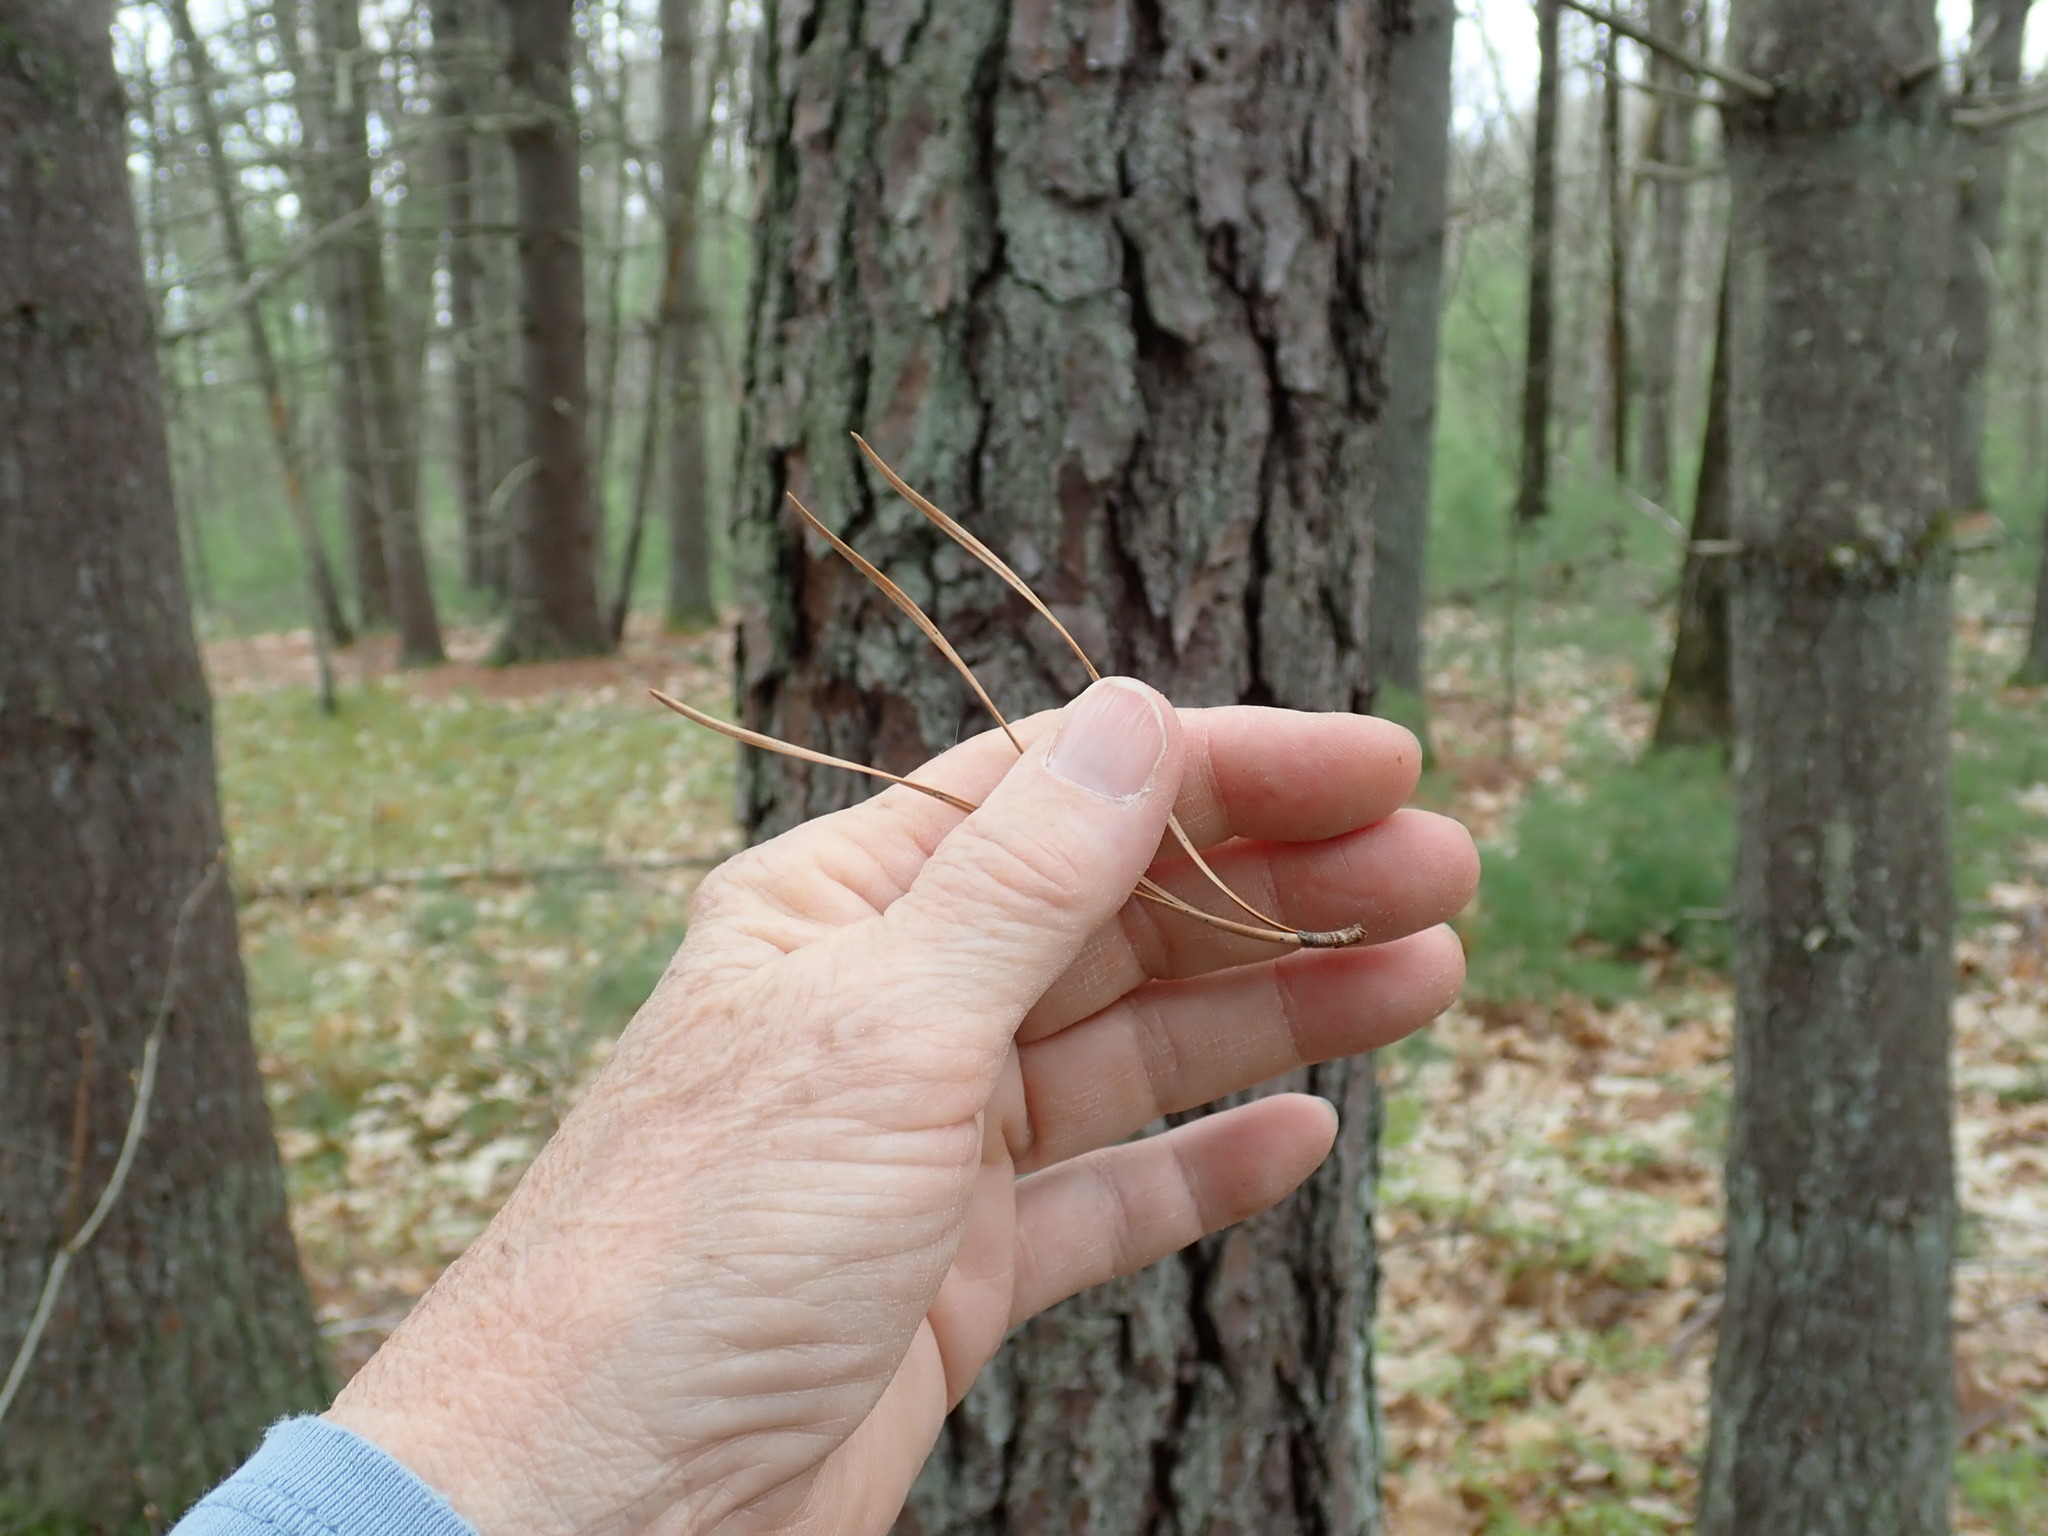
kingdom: Plantae
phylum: Tracheophyta
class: Pinopsida
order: Pinales
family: Pinaceae
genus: Pinus
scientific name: Pinus rigida
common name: Pitch pine
